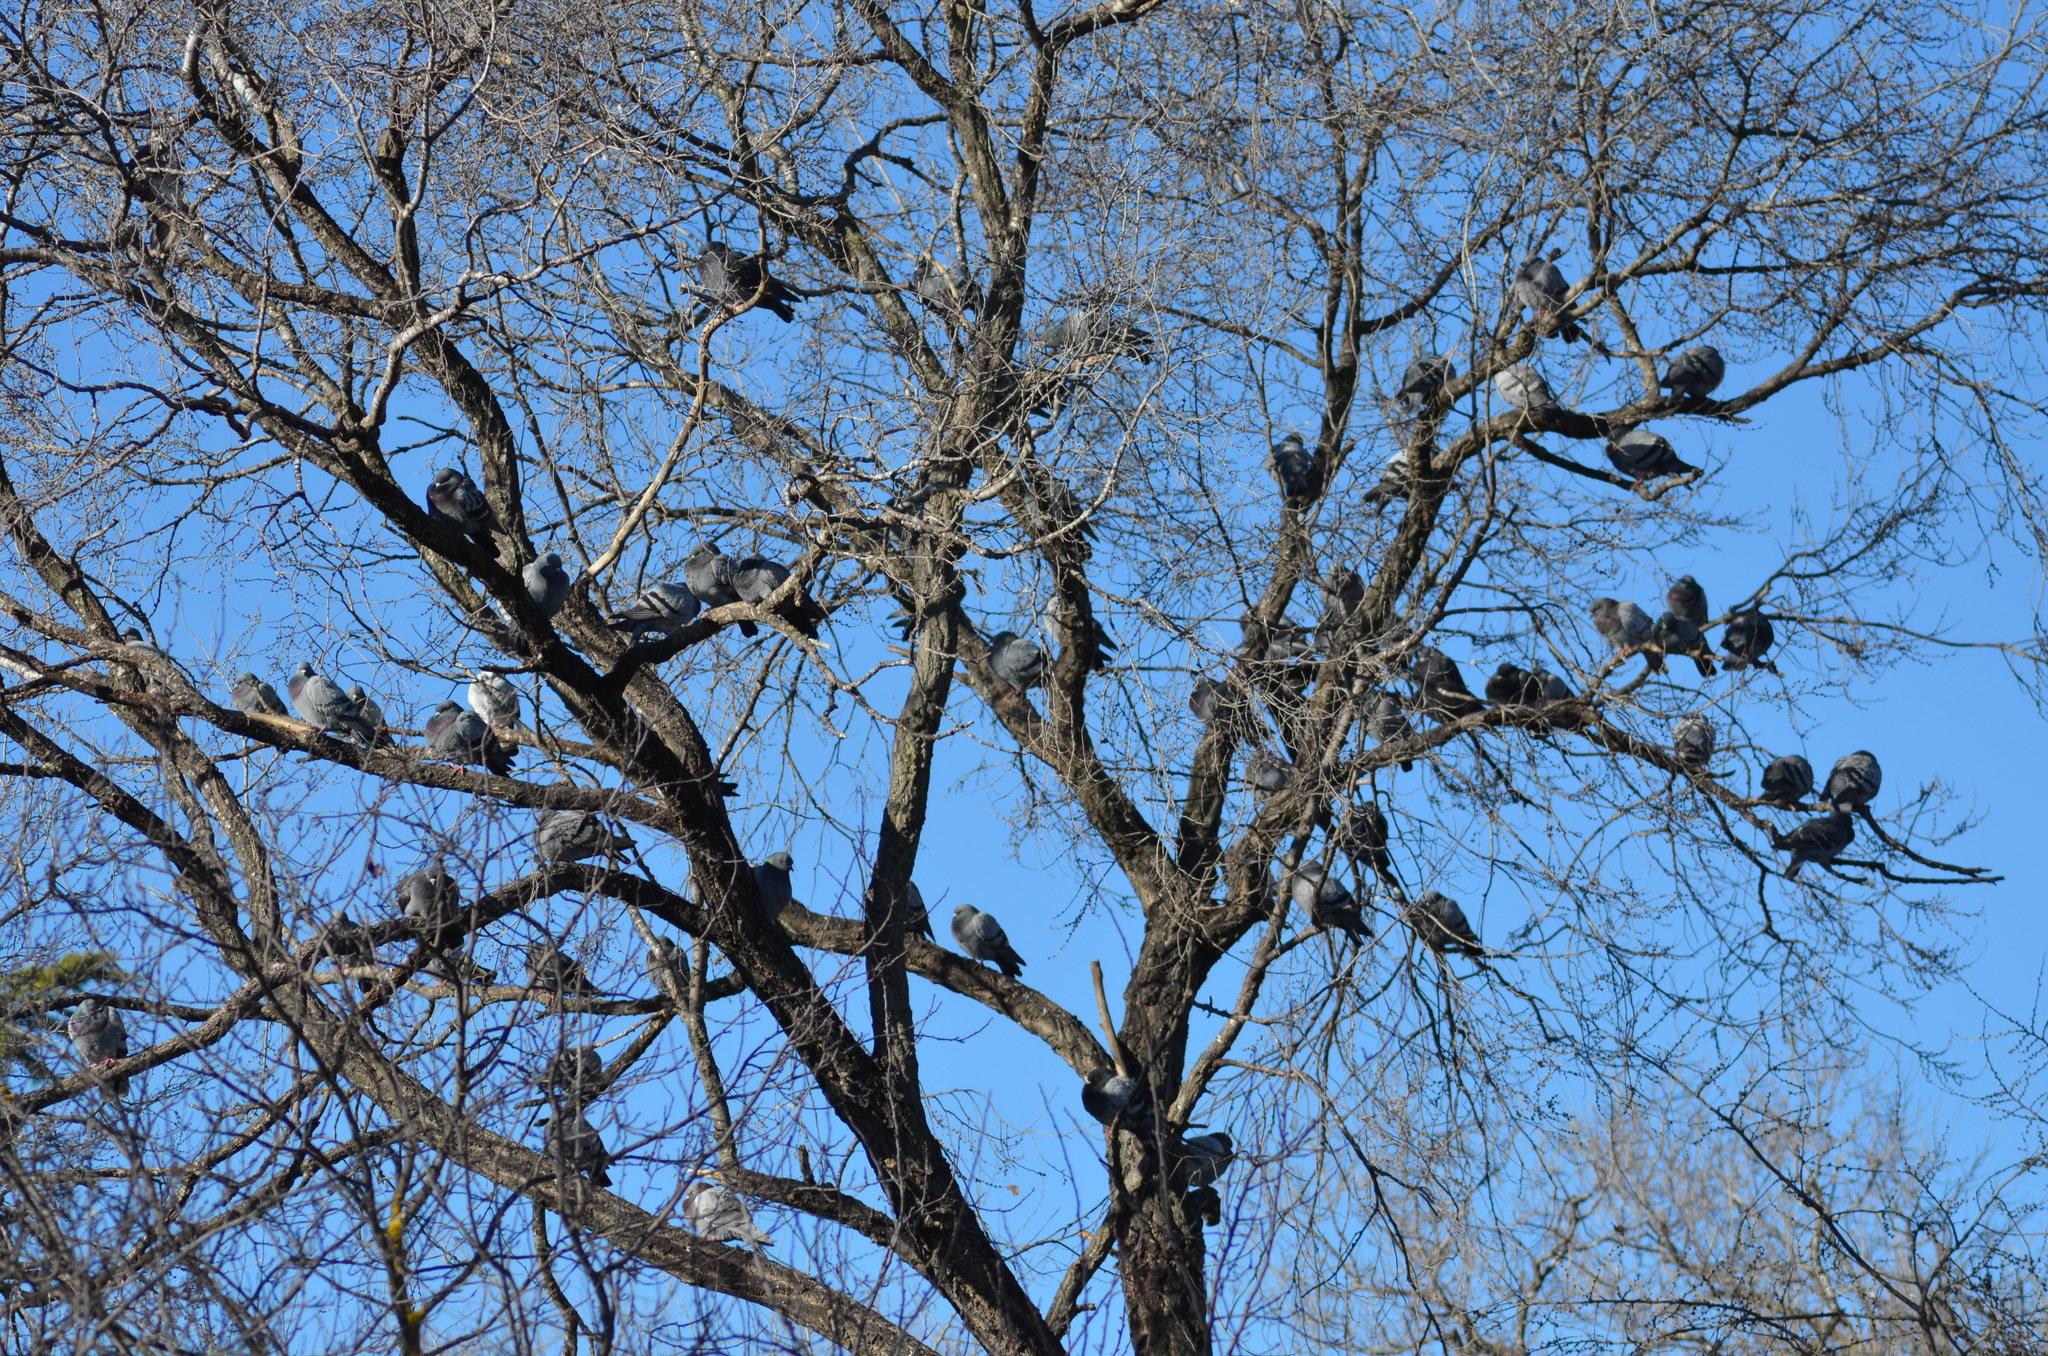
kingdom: Animalia
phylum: Chordata
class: Aves
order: Columbiformes
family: Columbidae
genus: Columba
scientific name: Columba livia
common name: Rock pigeon
